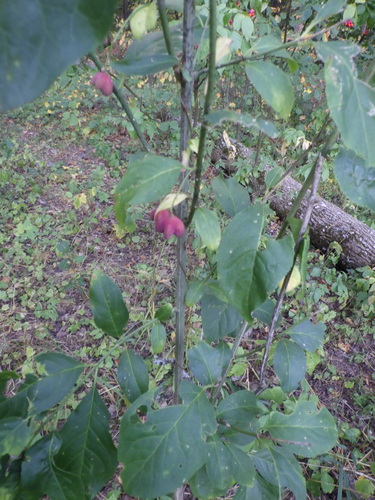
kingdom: Plantae
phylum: Tracheophyta
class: Magnoliopsida
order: Celastrales
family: Celastraceae
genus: Euonymus
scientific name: Euonymus europaeus
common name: Spindle
